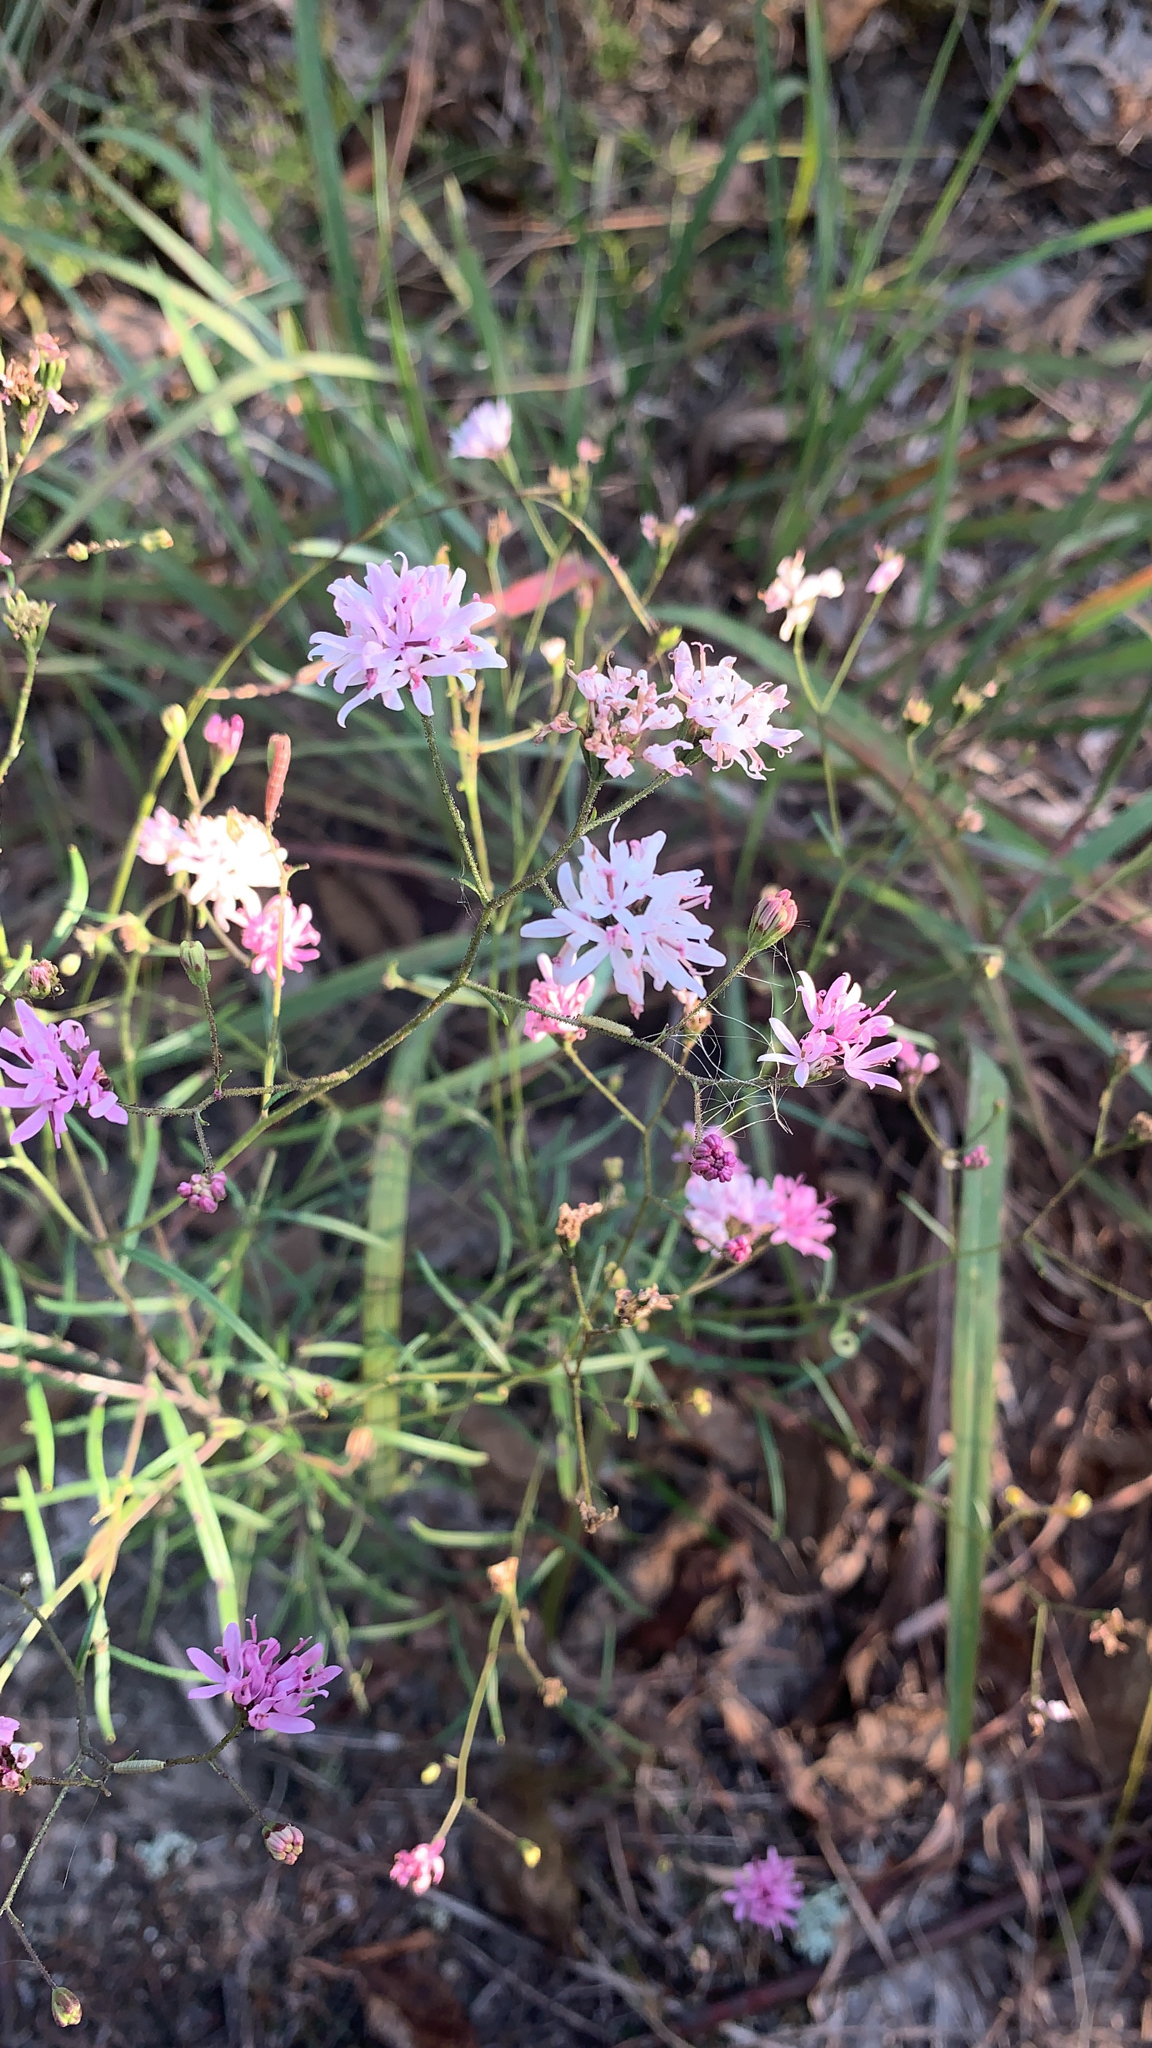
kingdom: Plantae
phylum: Tracheophyta
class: Magnoliopsida
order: Asterales
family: Asteraceae
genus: Palafoxia
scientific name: Palafoxia callosa
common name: Small palafox
